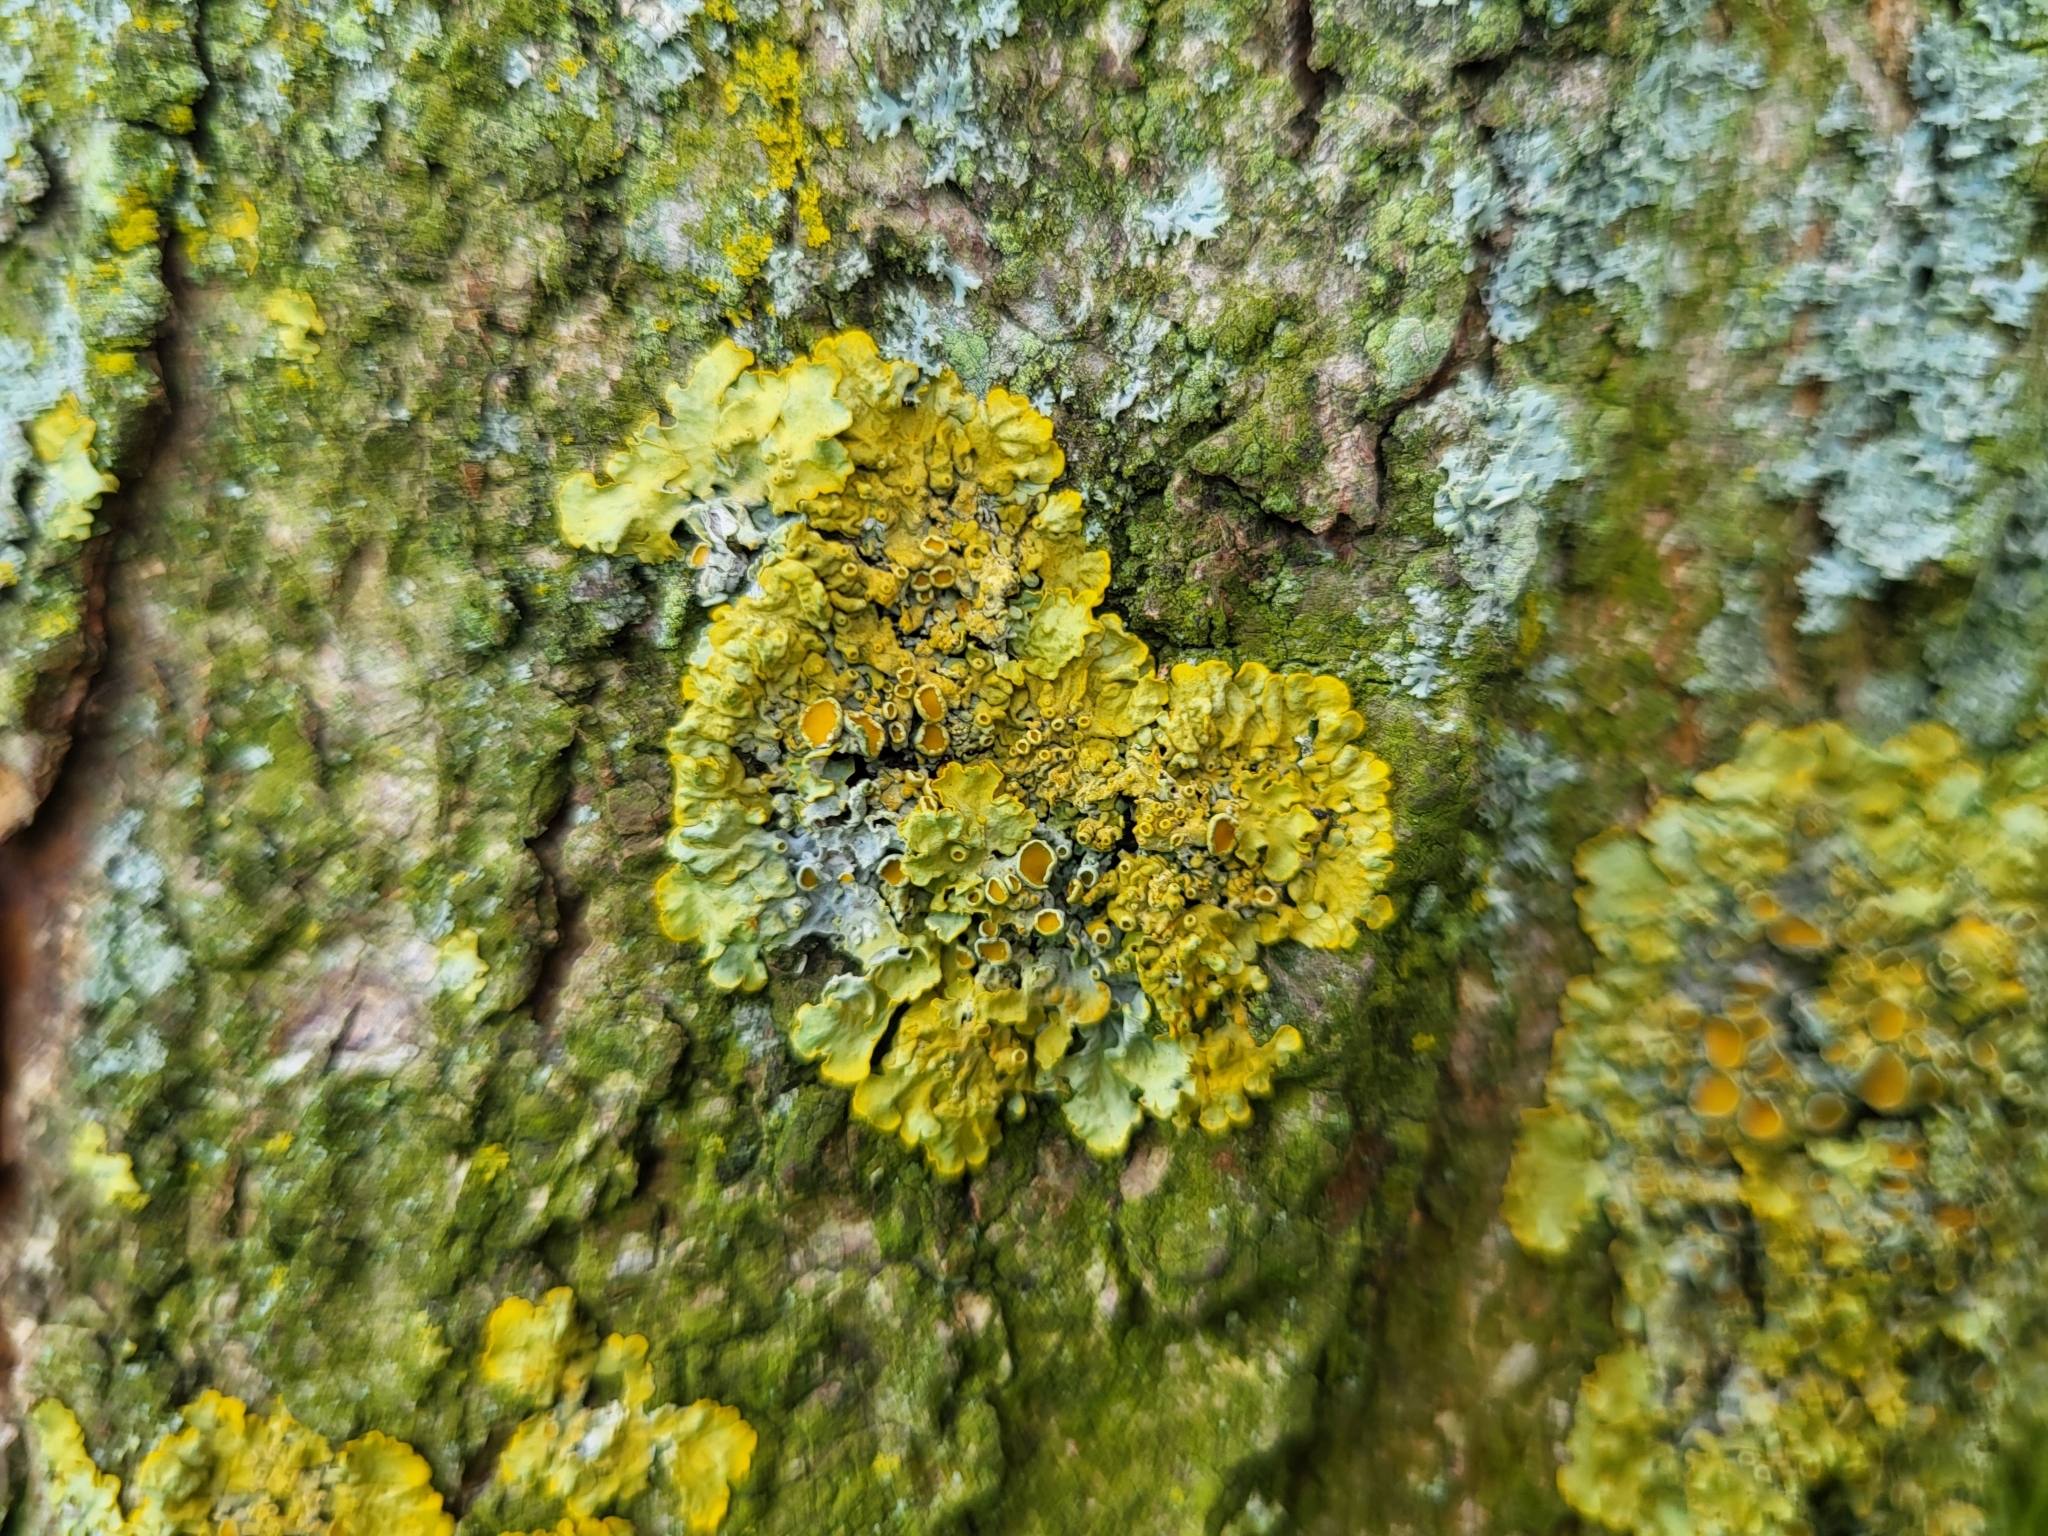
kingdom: Fungi
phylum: Ascomycota
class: Lecanoromycetes
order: Teloschistales
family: Teloschistaceae
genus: Xanthoria
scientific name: Xanthoria parietina
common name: Common orange lichen
